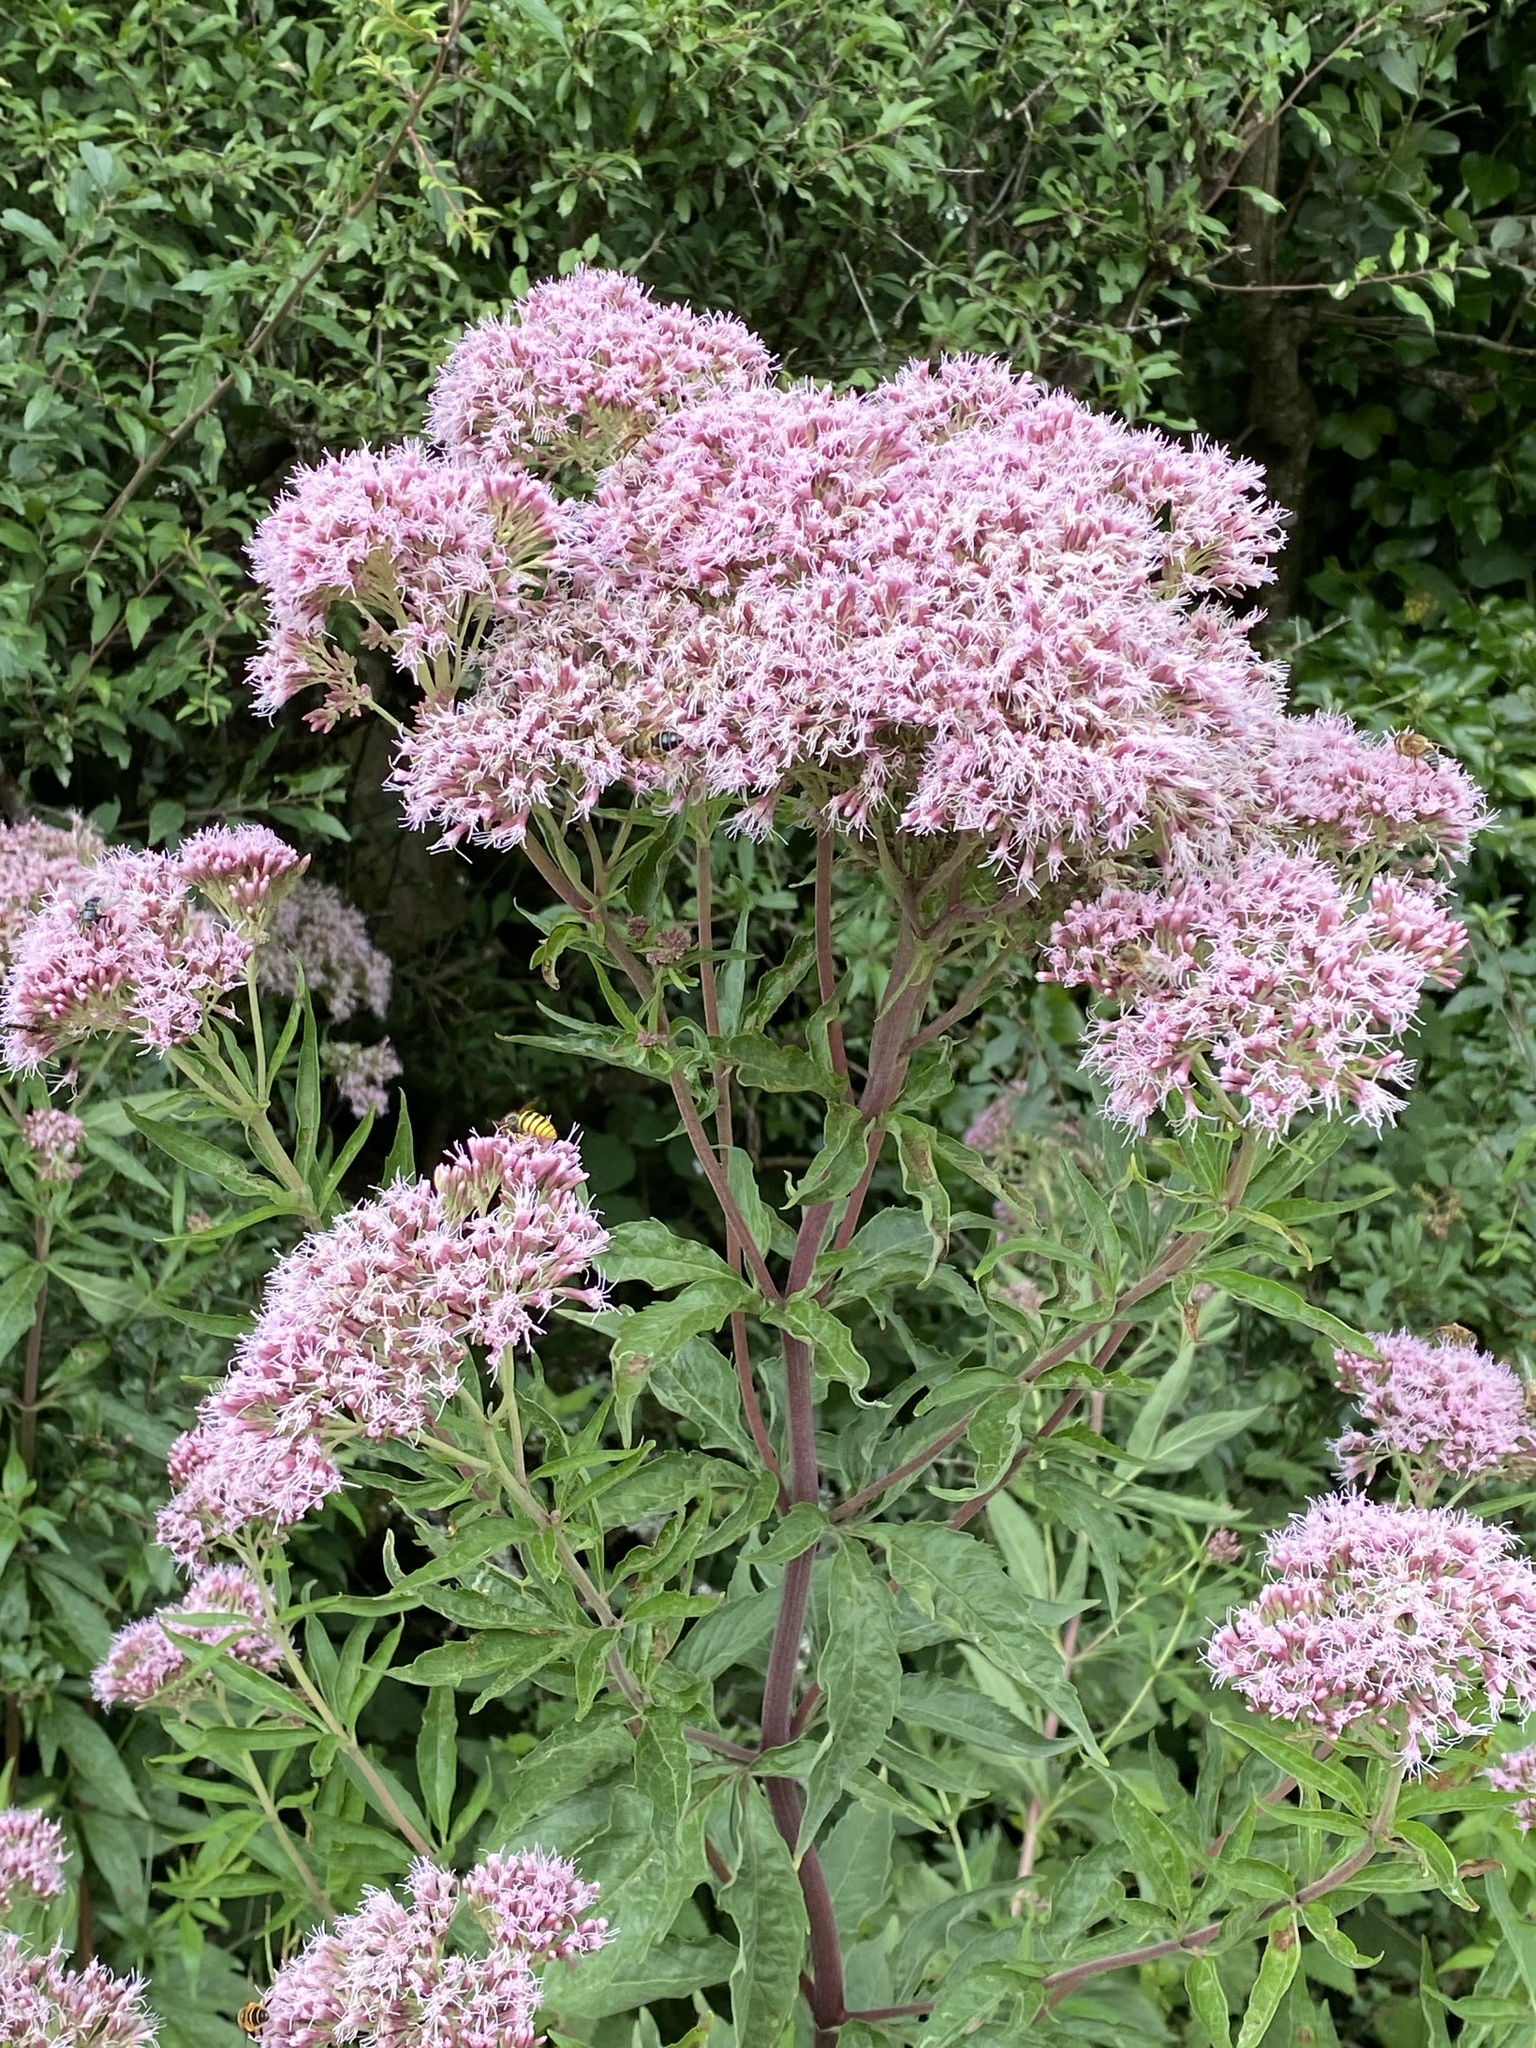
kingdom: Plantae
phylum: Tracheophyta
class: Magnoliopsida
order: Asterales
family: Asteraceae
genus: Eupatorium
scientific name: Eupatorium cannabinum
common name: Hemp-agrimony
